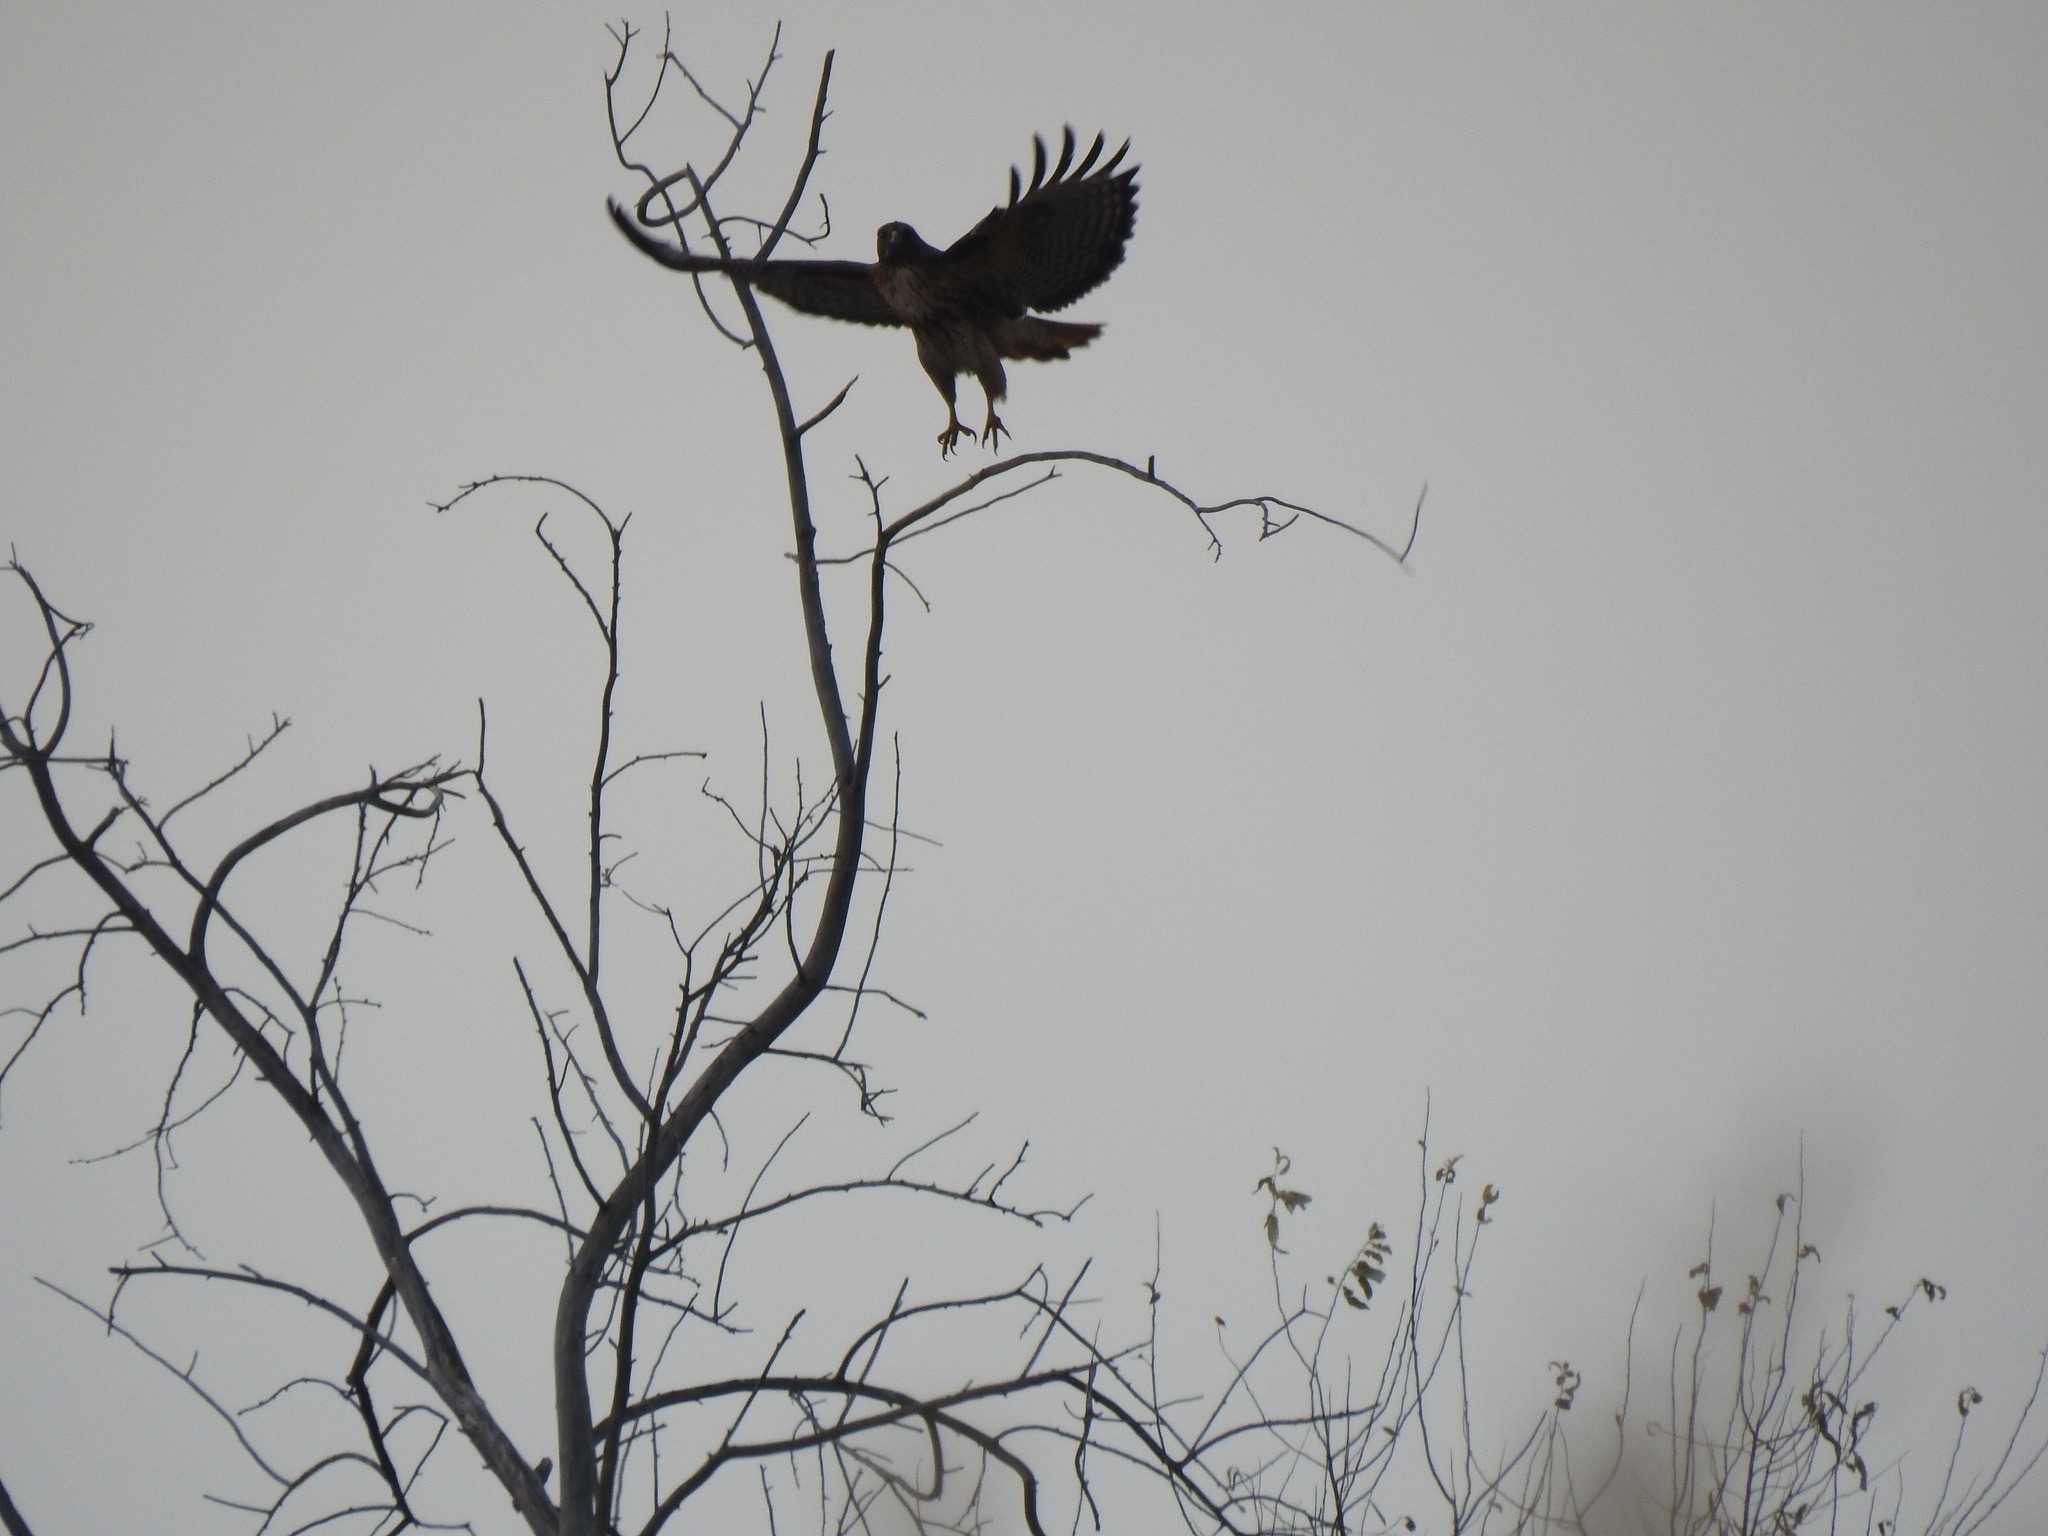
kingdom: Animalia
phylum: Chordata
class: Aves
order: Accipitriformes
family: Accipitridae
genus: Buteo
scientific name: Buteo jamaicensis
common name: Red-tailed hawk
